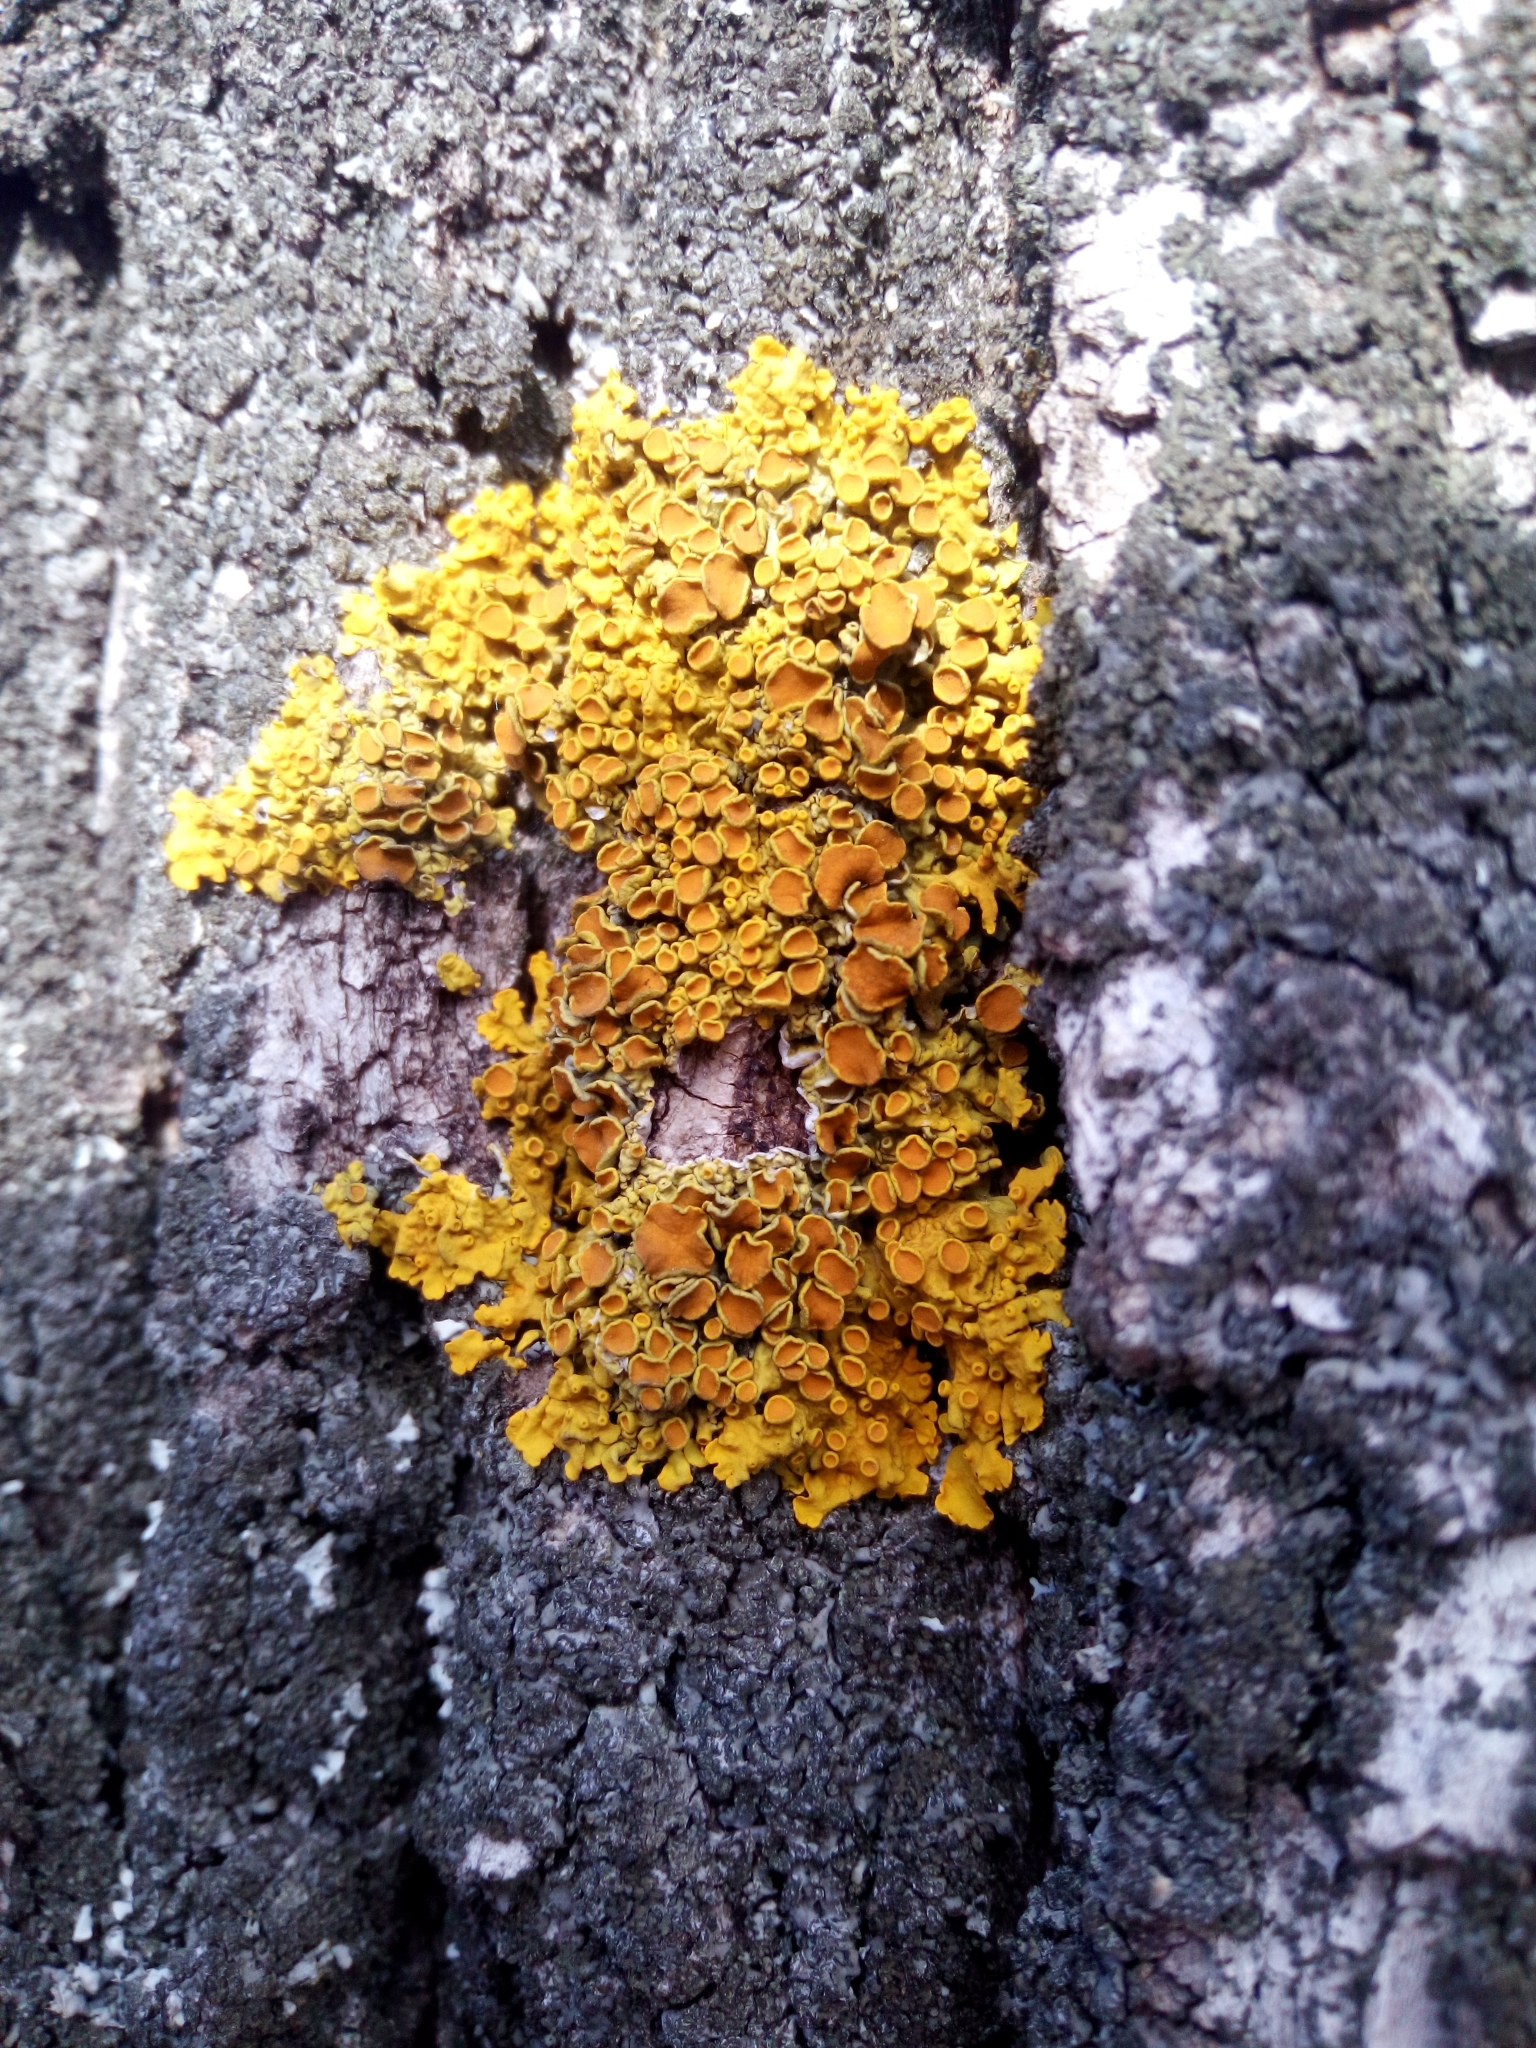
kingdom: Fungi
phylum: Ascomycota
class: Lecanoromycetes
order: Teloschistales
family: Teloschistaceae
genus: Xanthoria
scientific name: Xanthoria parietina
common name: Common orange lichen
